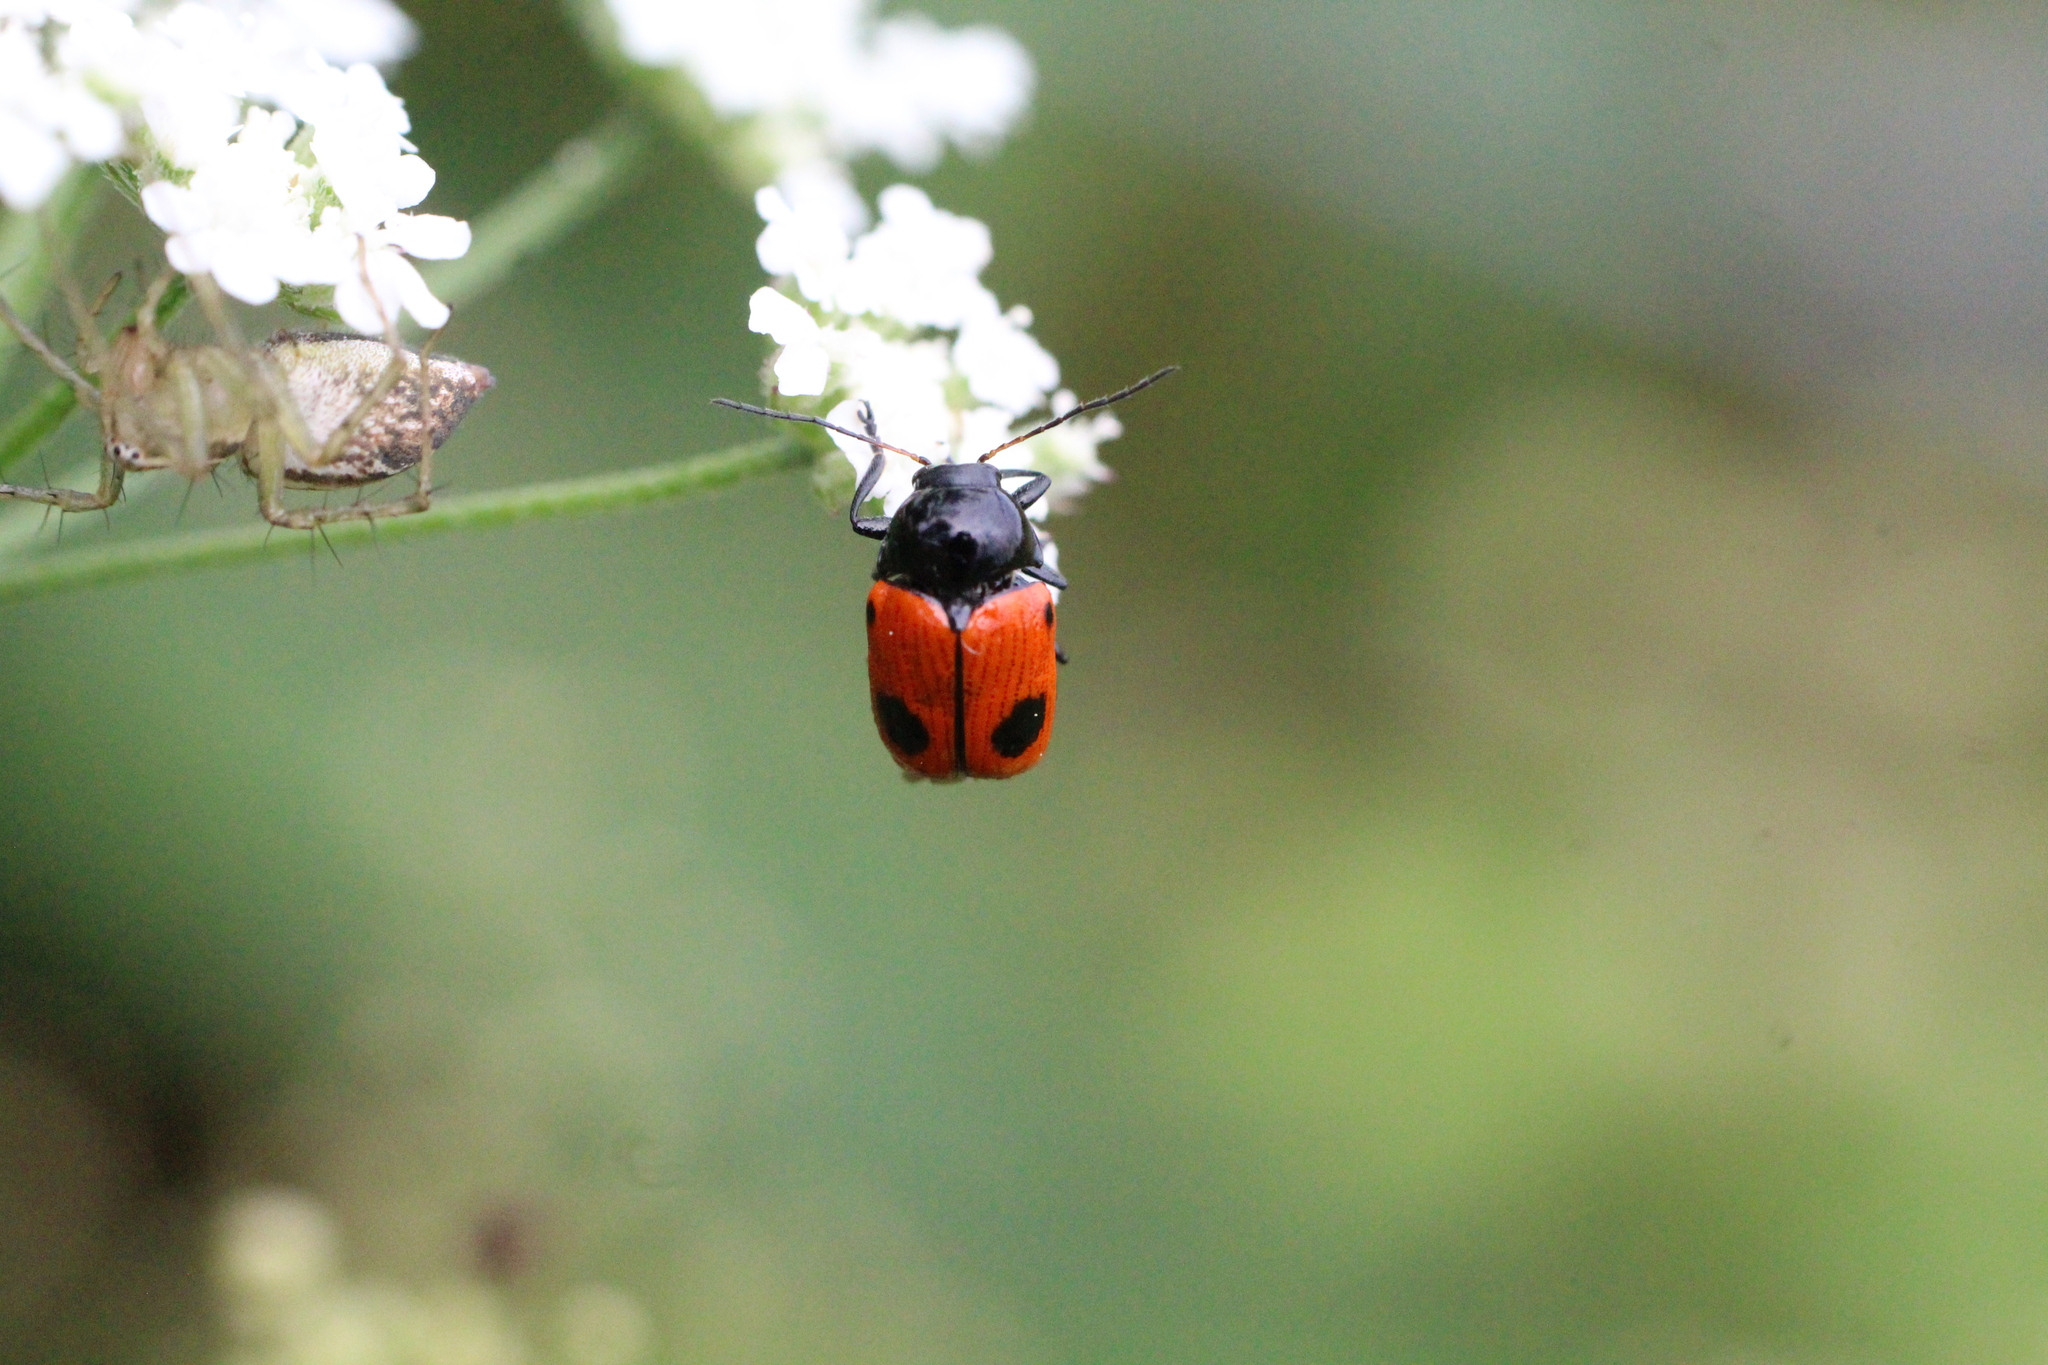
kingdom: Animalia
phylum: Arthropoda
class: Insecta
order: Coleoptera
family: Chrysomelidae
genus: Chiridopsis
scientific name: Chiridopsis bipunctata
